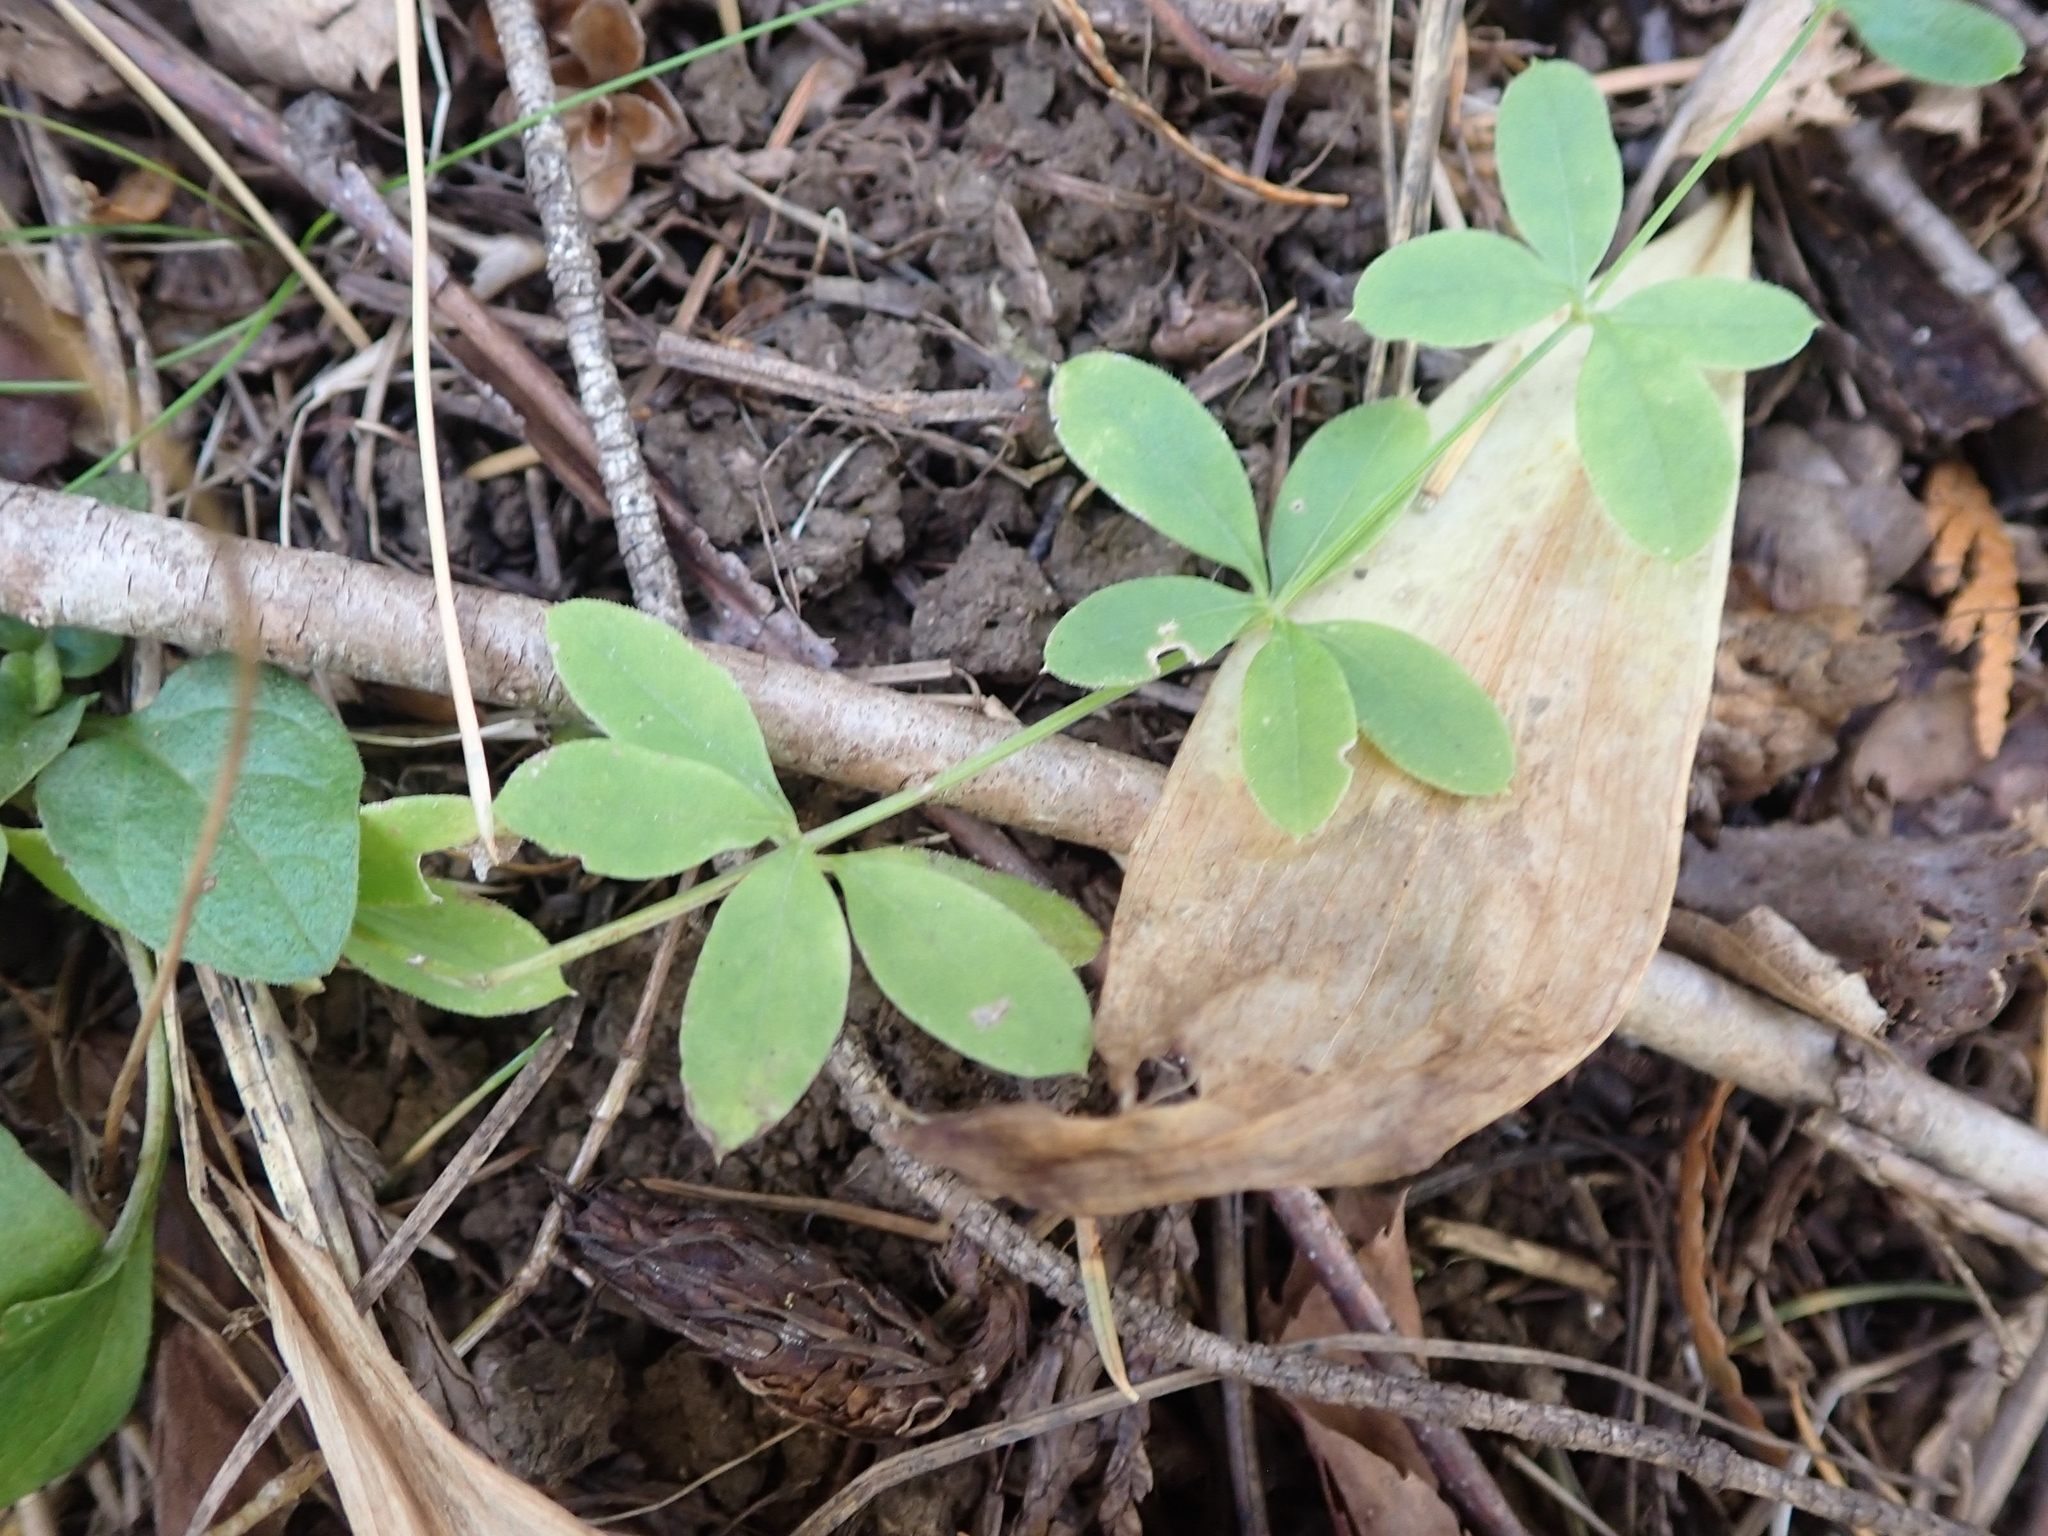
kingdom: Plantae
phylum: Tracheophyta
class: Magnoliopsida
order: Gentianales
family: Rubiaceae
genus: Galium
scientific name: Galium triflorum
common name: Fragrant bedstraw
